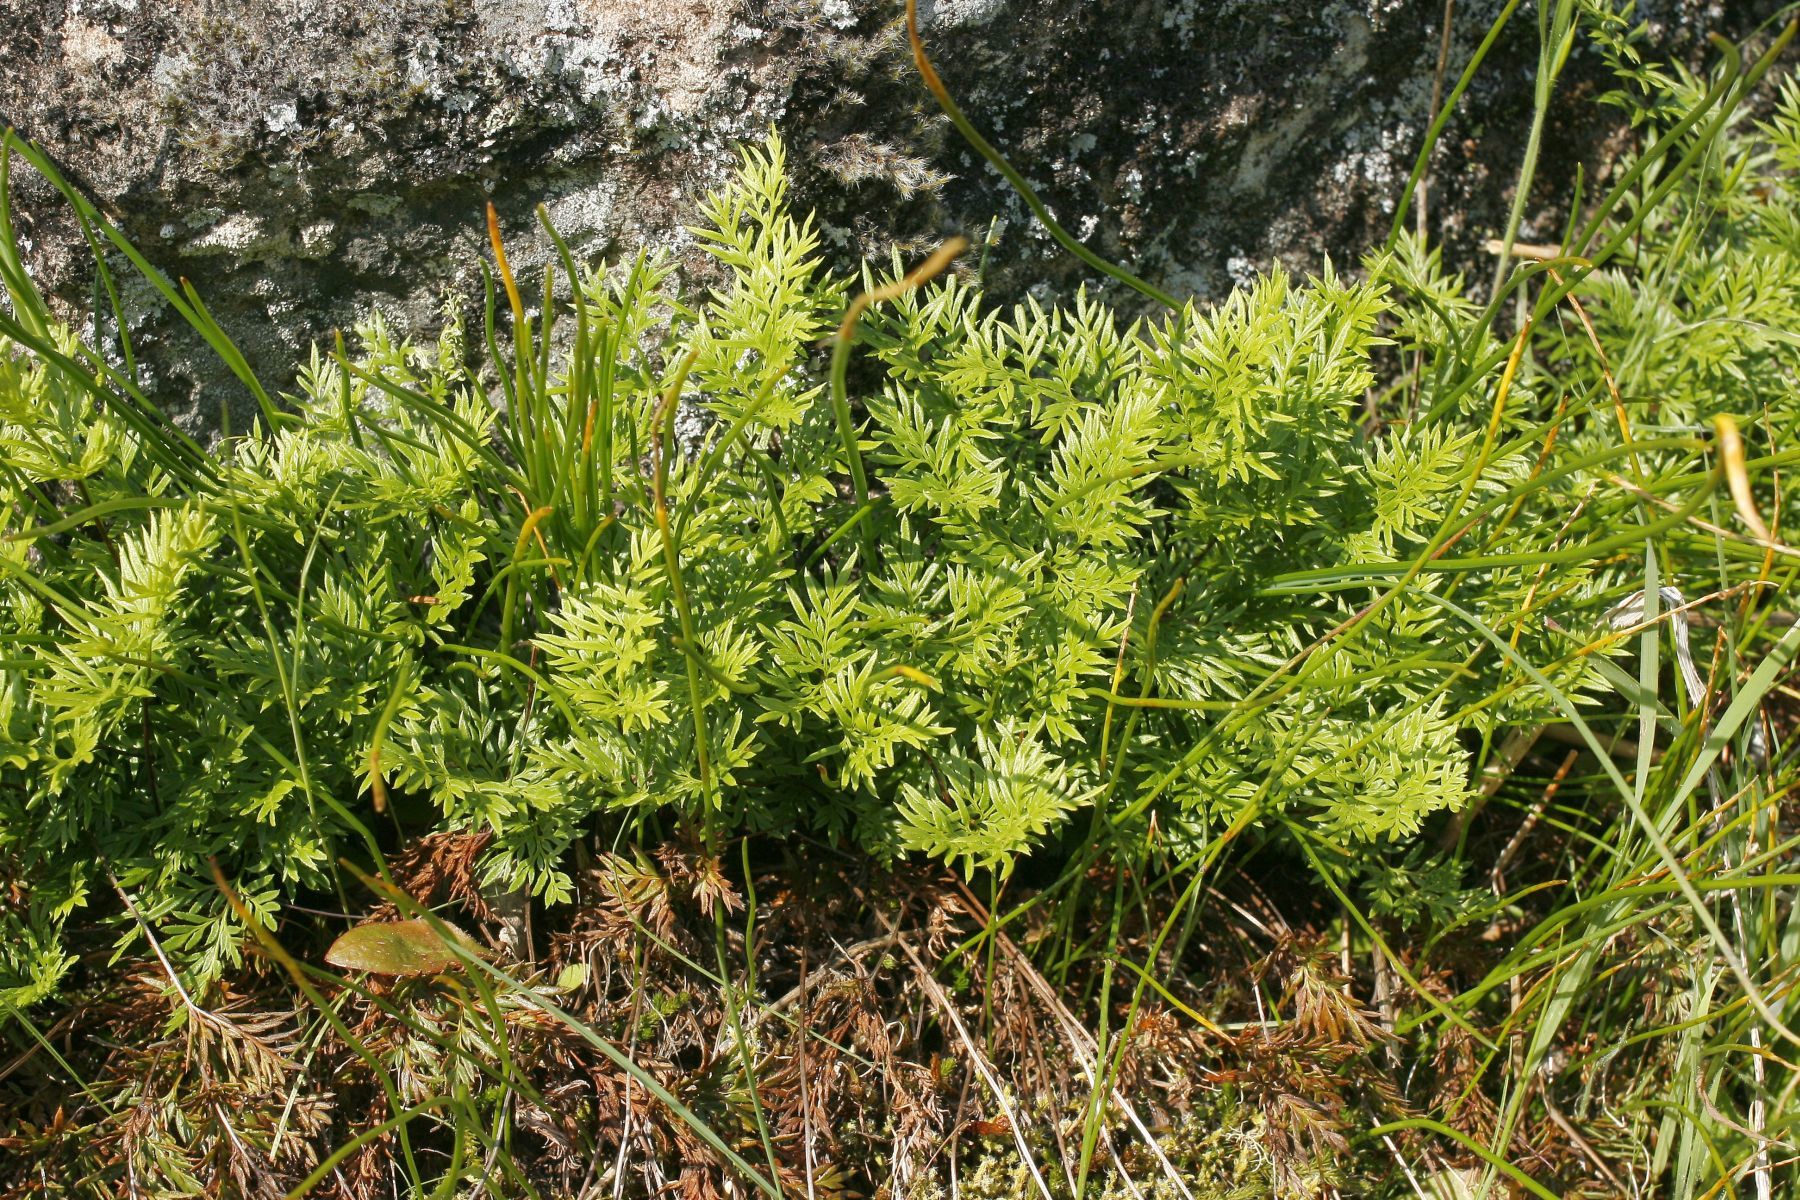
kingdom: Plantae
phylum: Tracheophyta
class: Polypodiopsida
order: Polypodiales
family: Pteridaceae
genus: Aspidotis
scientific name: Aspidotis densa
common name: Indian's dream
